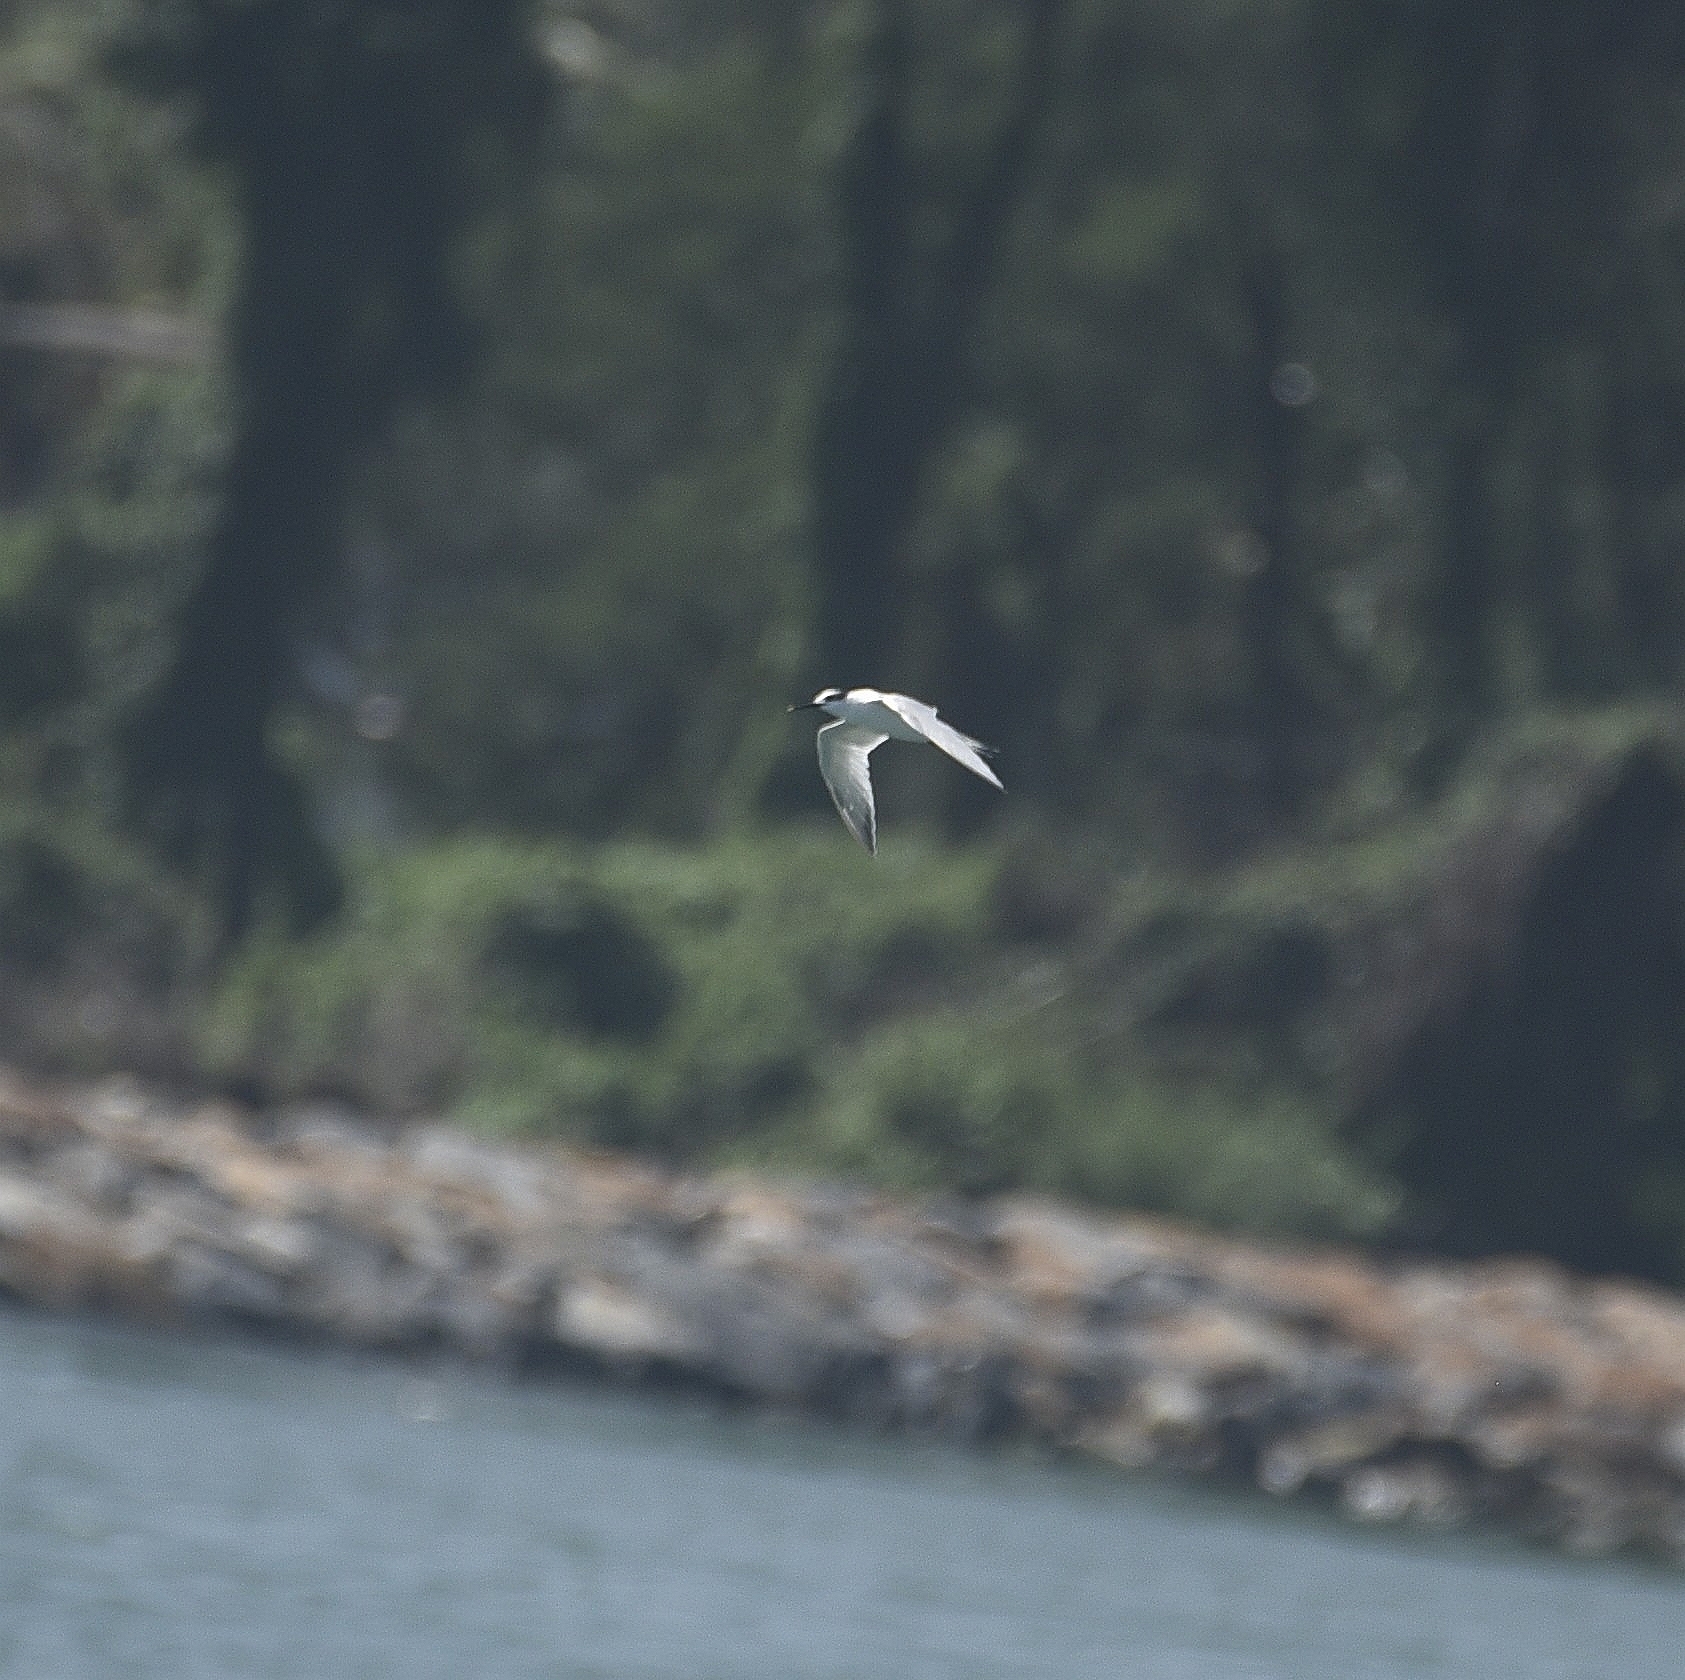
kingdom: Animalia
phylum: Chordata
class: Aves
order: Charadriiformes
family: Laridae
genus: Thalasseus
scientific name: Thalasseus sandvicensis
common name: Sandwich tern
